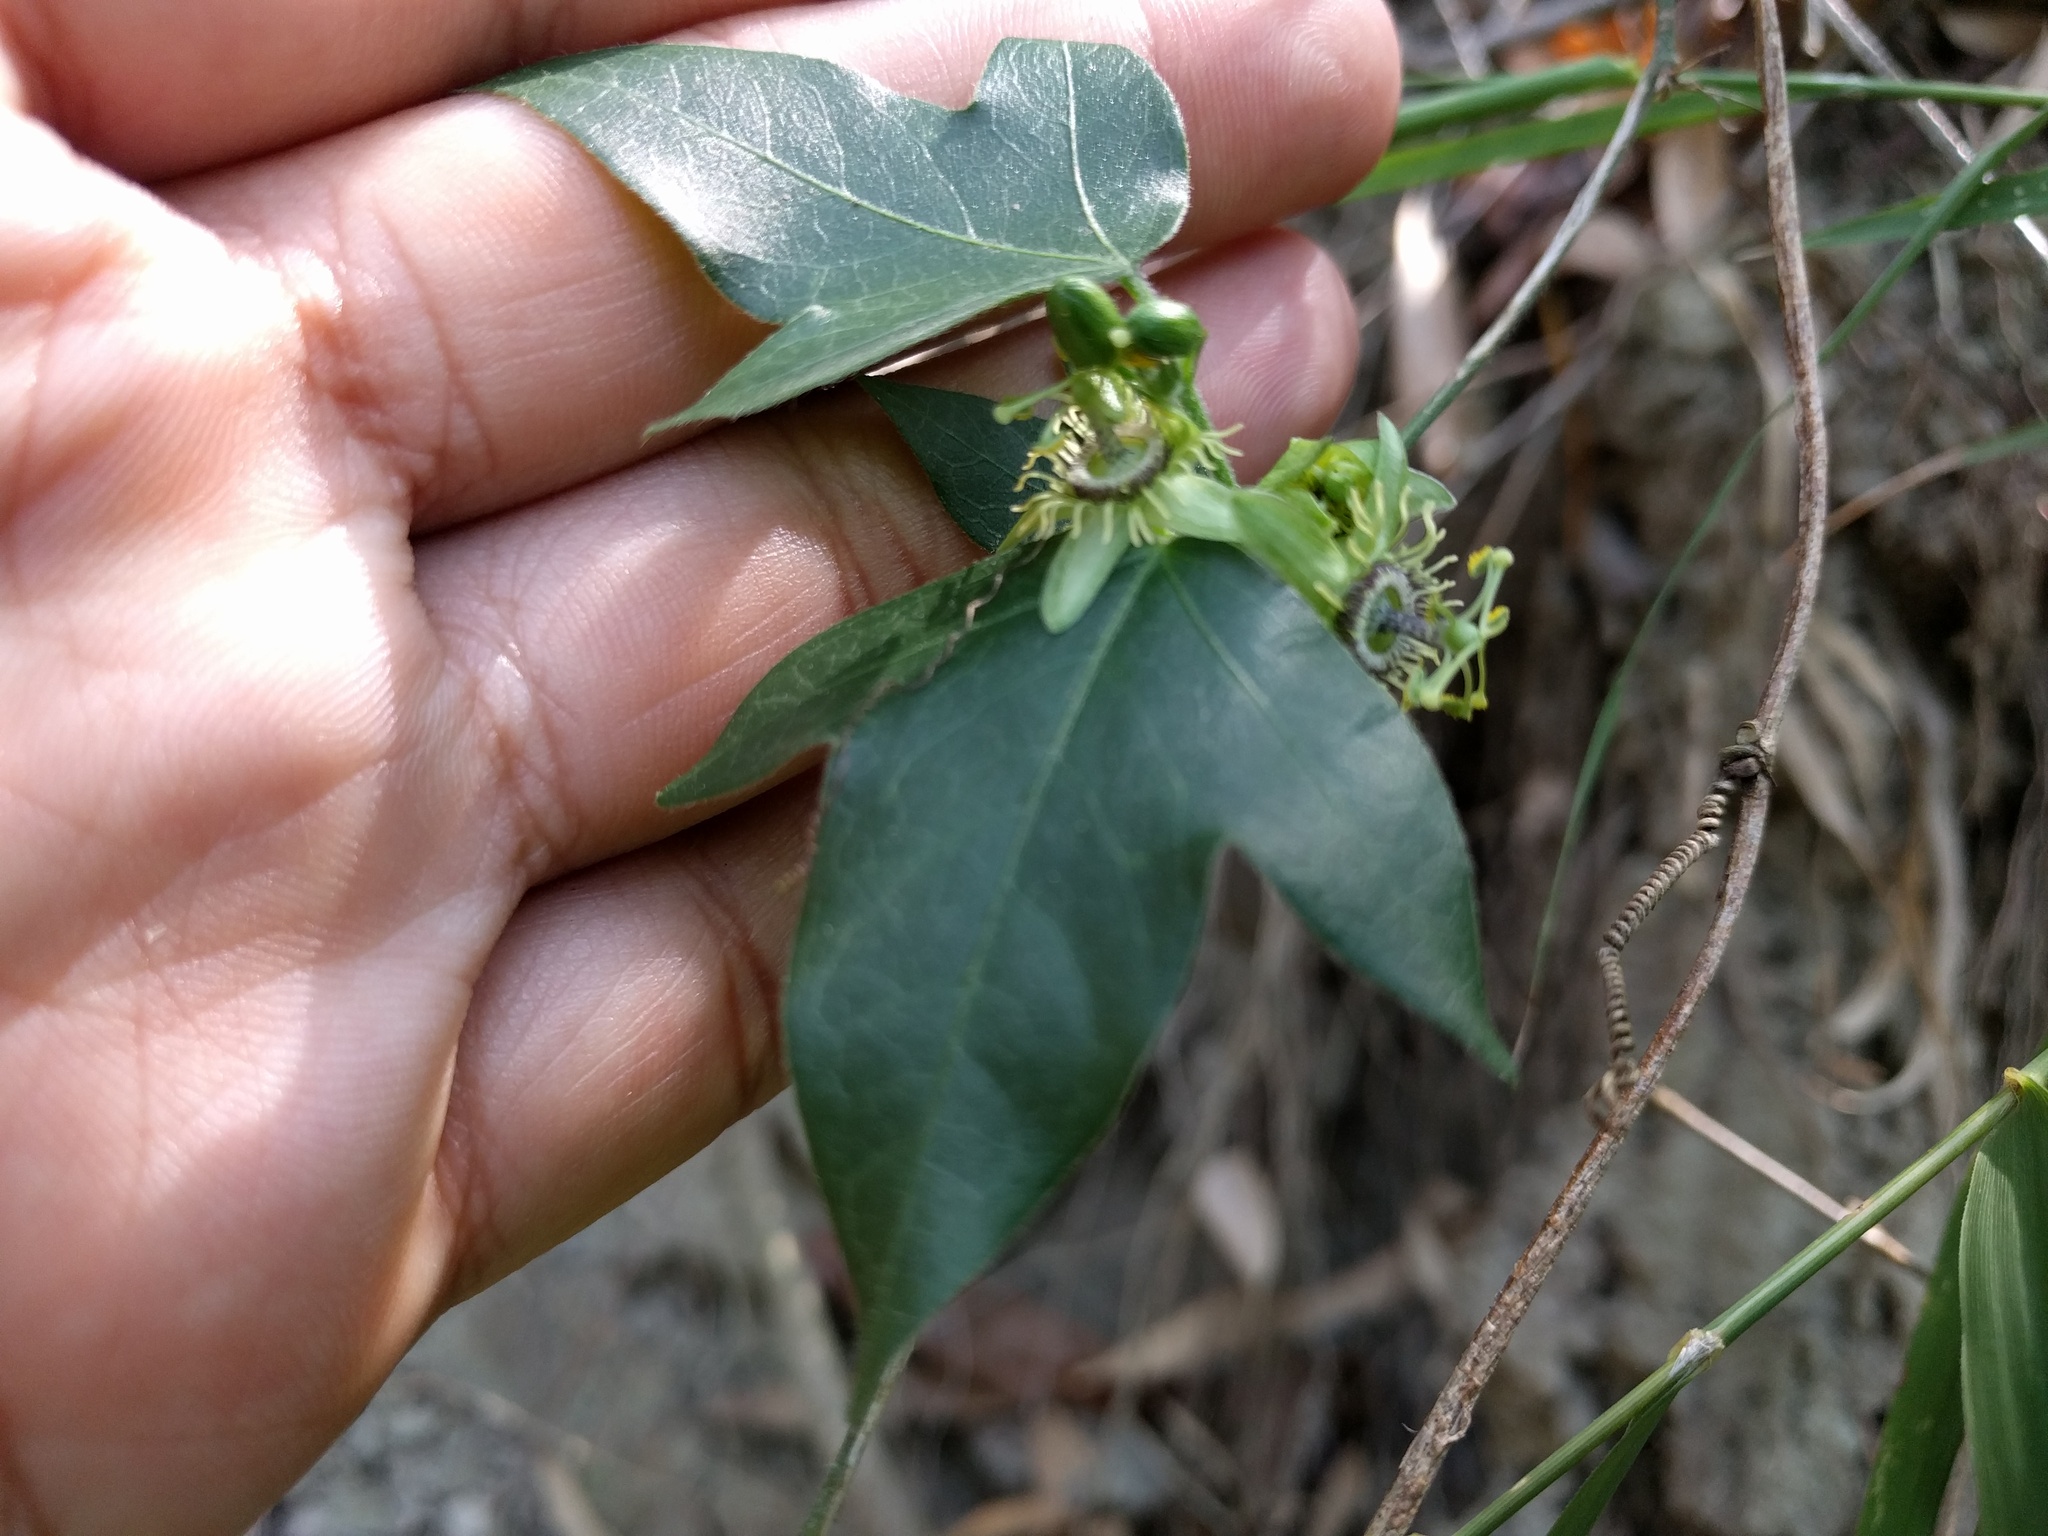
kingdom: Plantae
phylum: Tracheophyta
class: Magnoliopsida
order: Malpighiales
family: Passifloraceae
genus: Passiflora
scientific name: Passiflora suberosa
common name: Wild passionfruit
